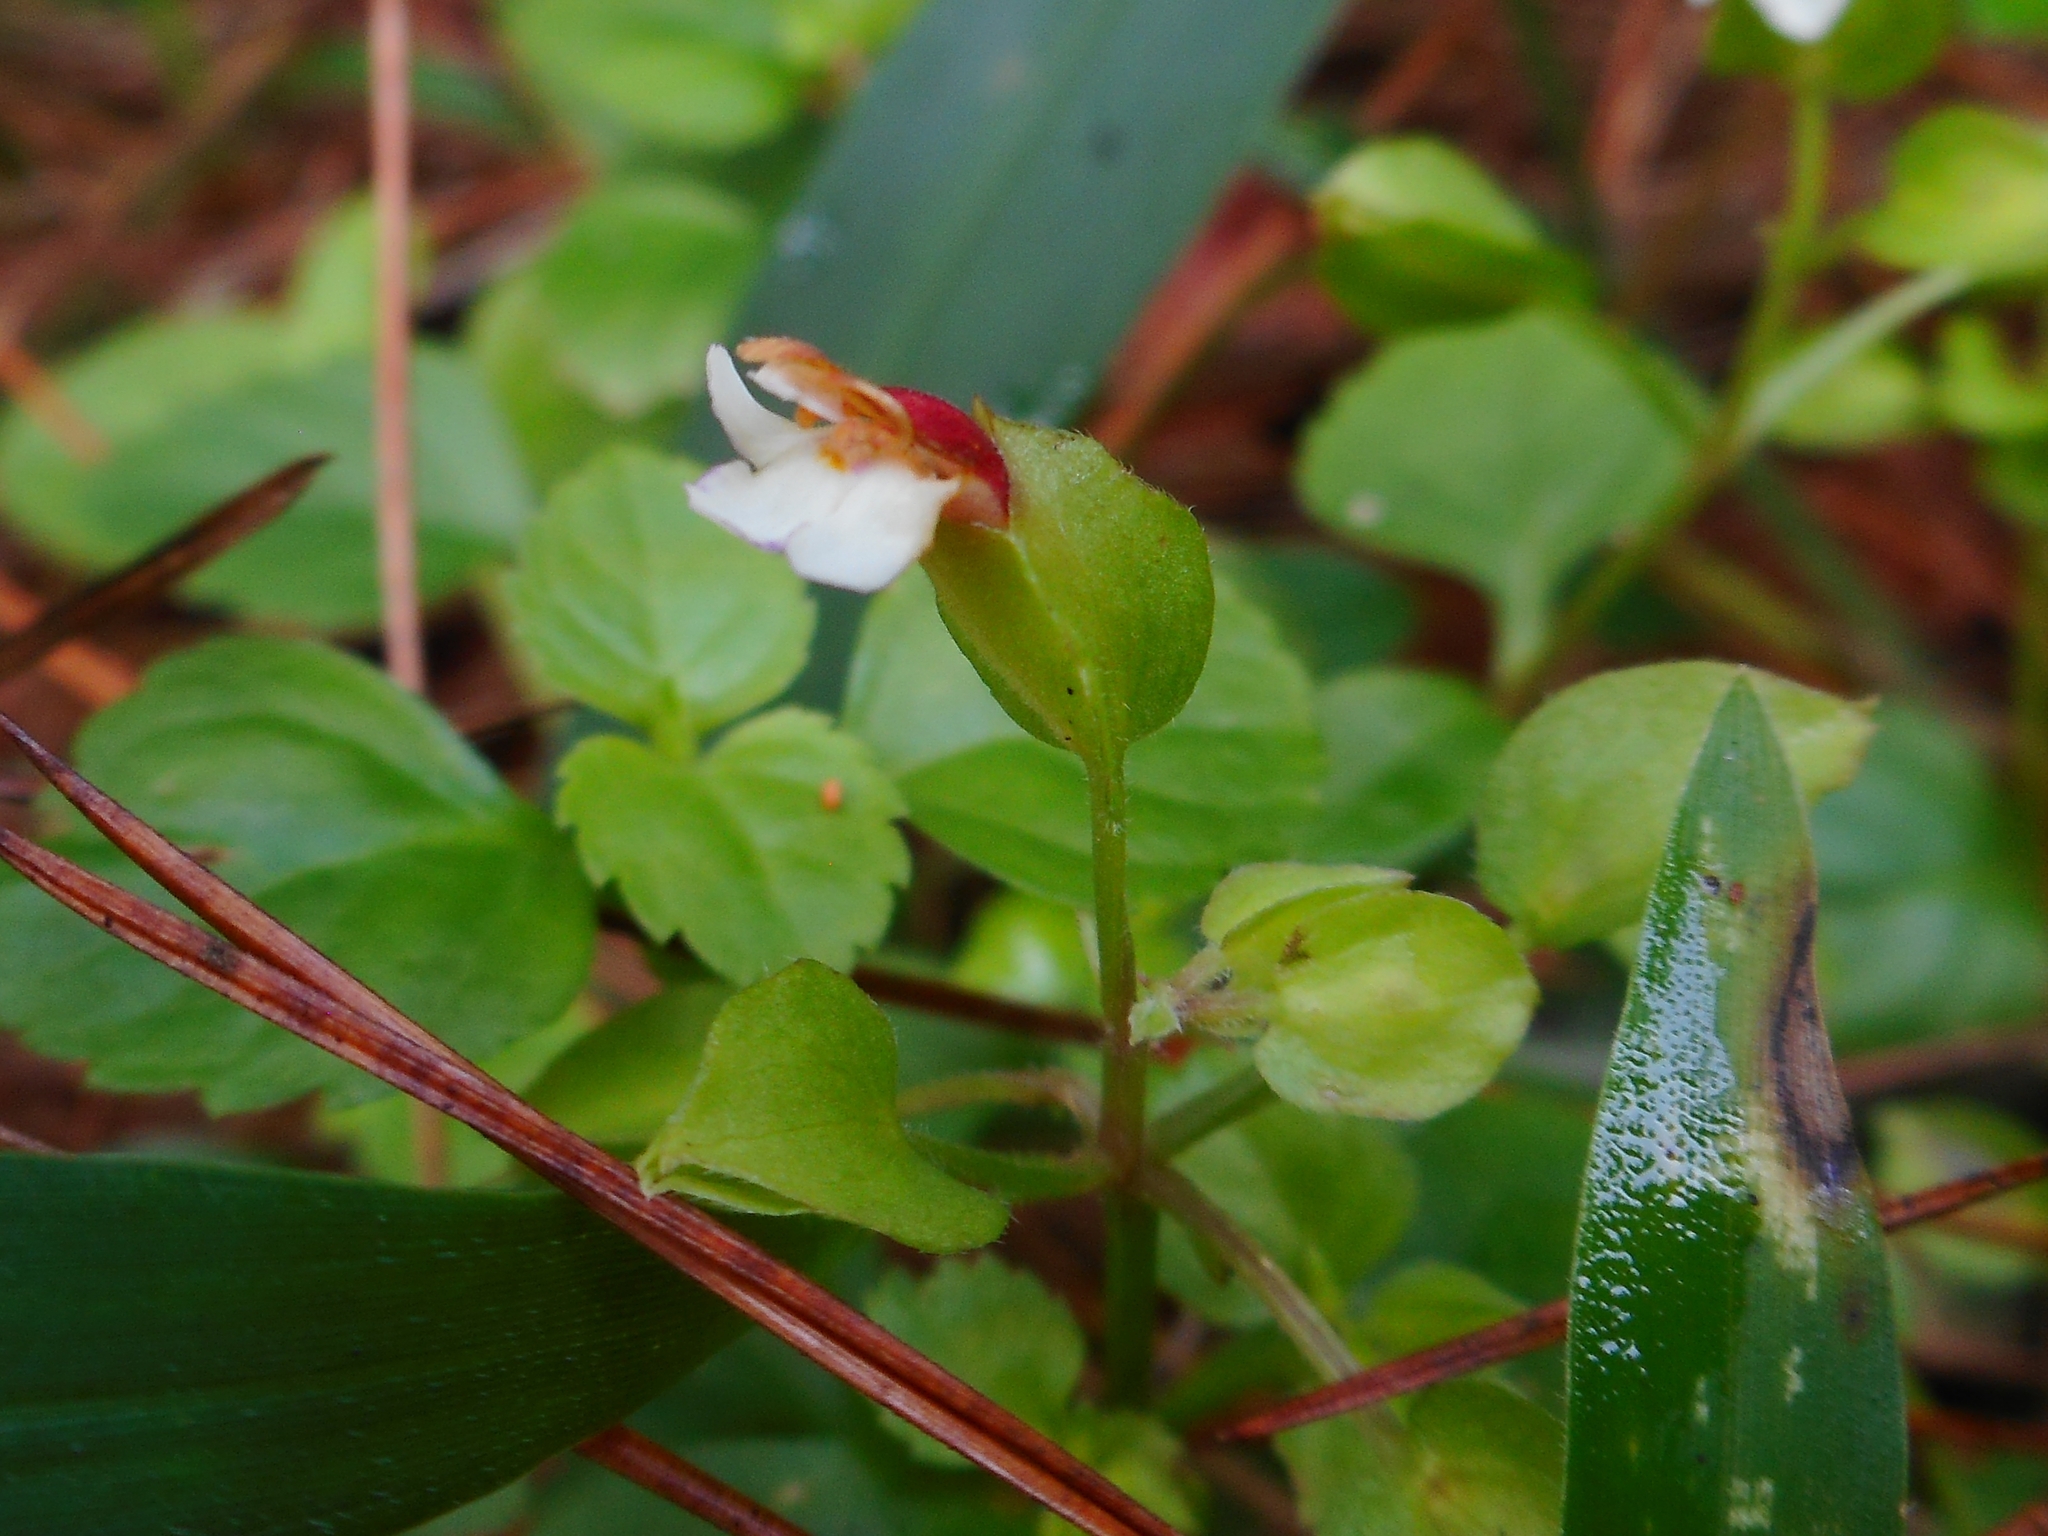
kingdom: Plantae
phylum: Tracheophyta
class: Magnoliopsida
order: Lamiales
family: Linderniaceae
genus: Legazpia
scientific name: Legazpia polygonoides
